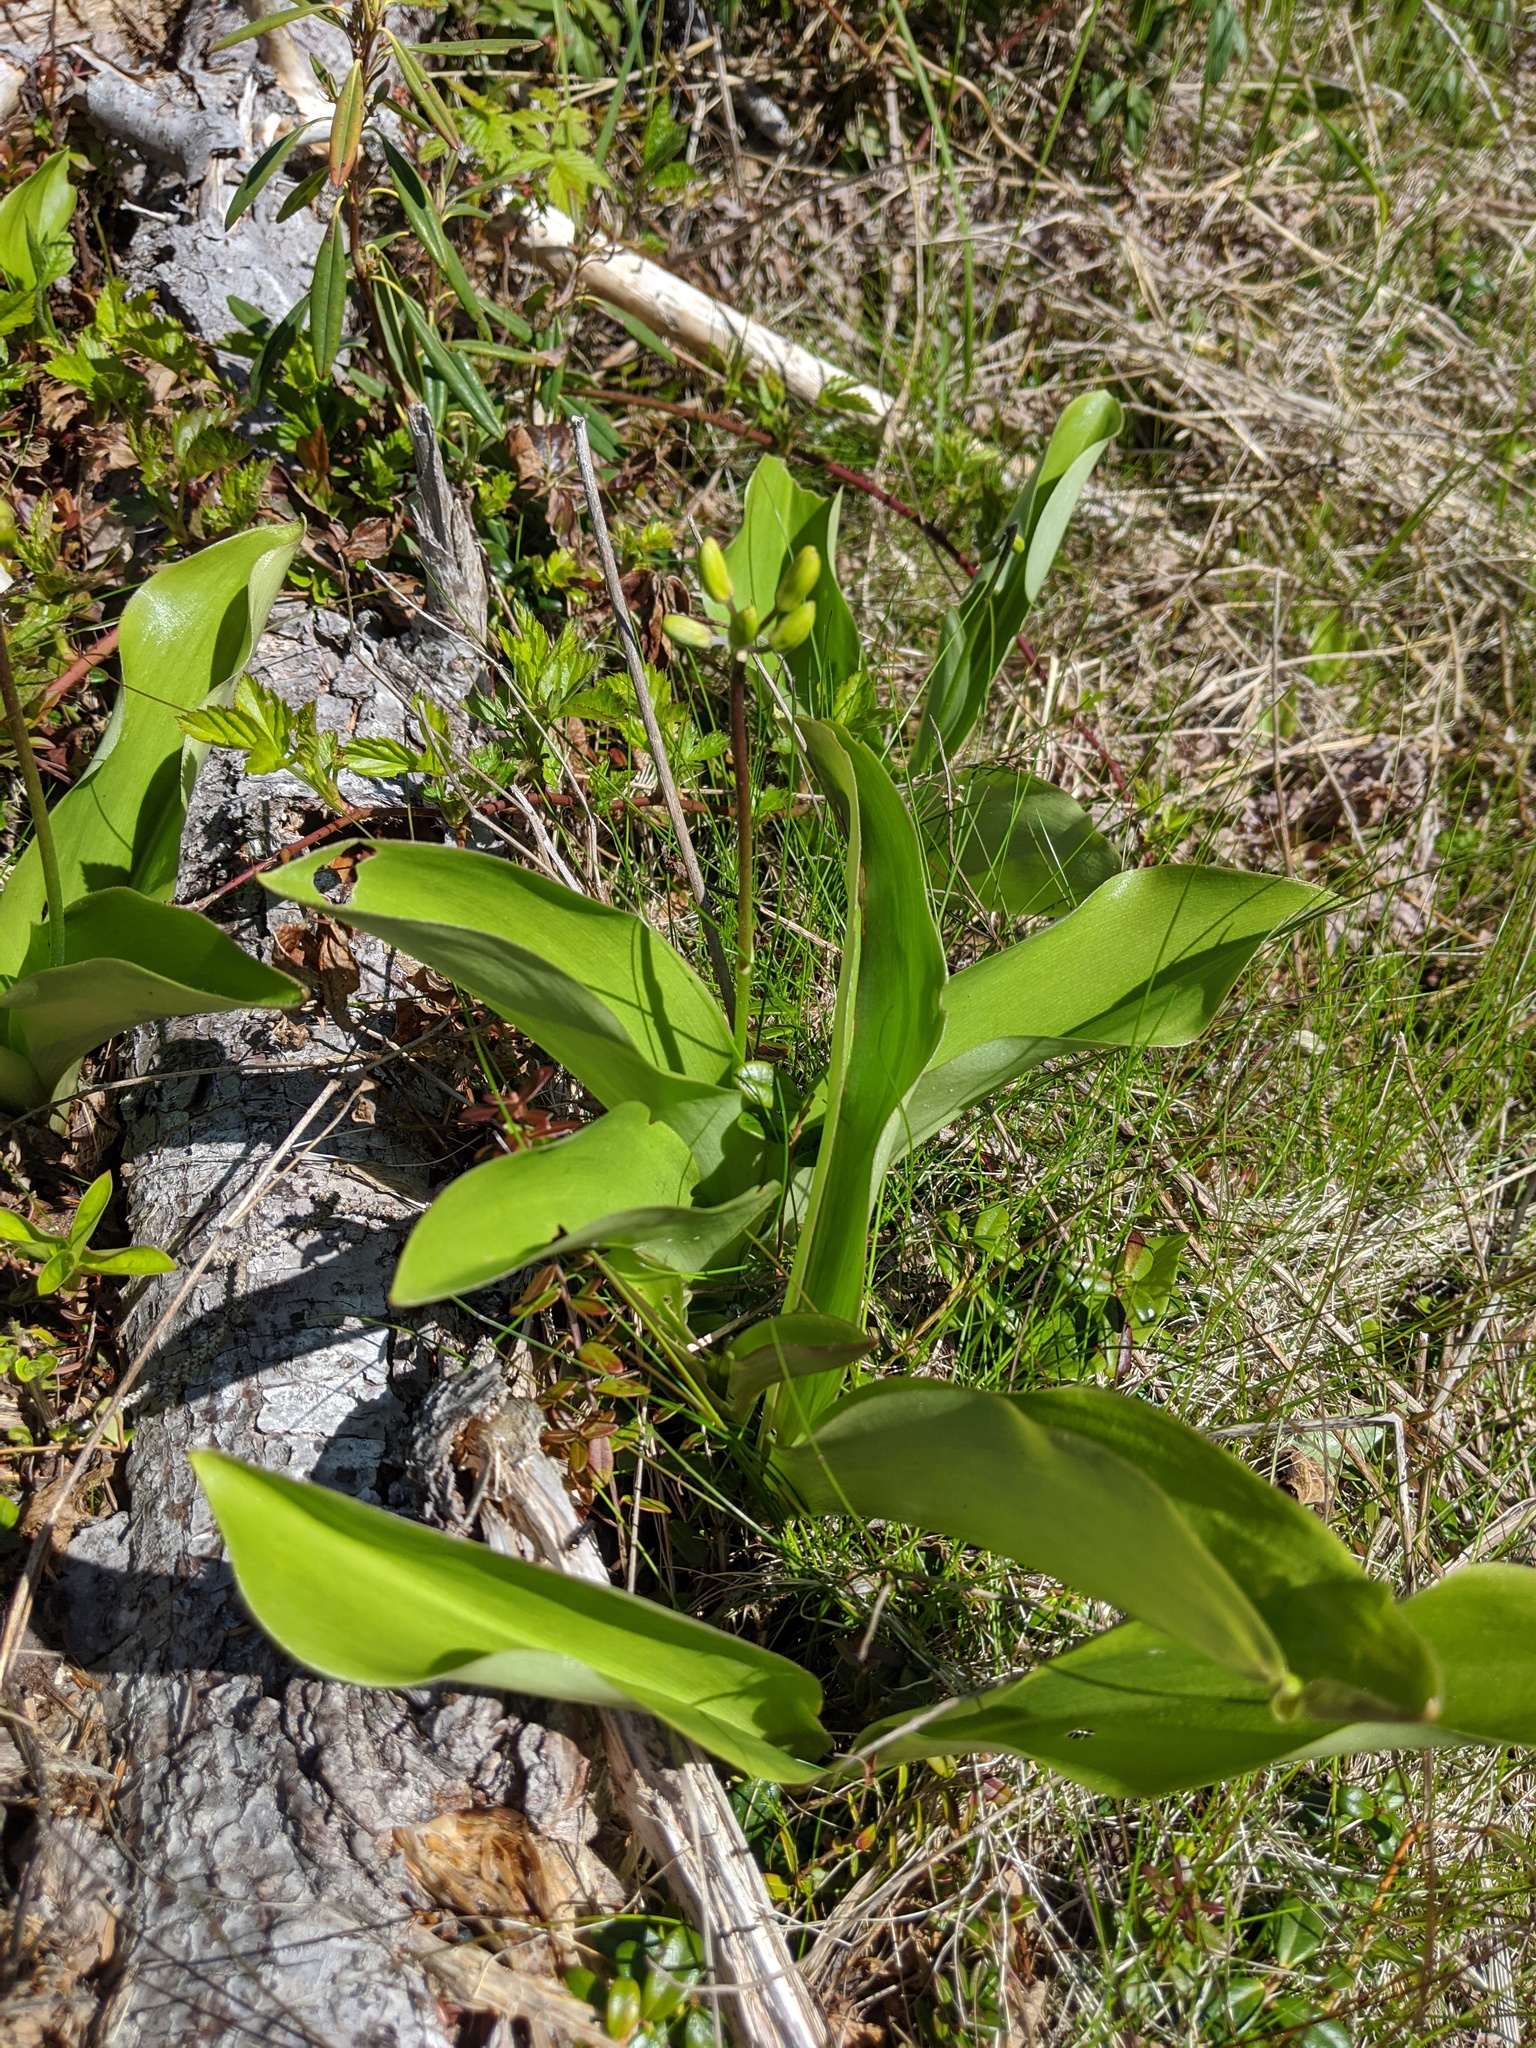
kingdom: Plantae
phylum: Tracheophyta
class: Liliopsida
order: Liliales
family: Liliaceae
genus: Clintonia
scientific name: Clintonia borealis
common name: Yellow clintonia
